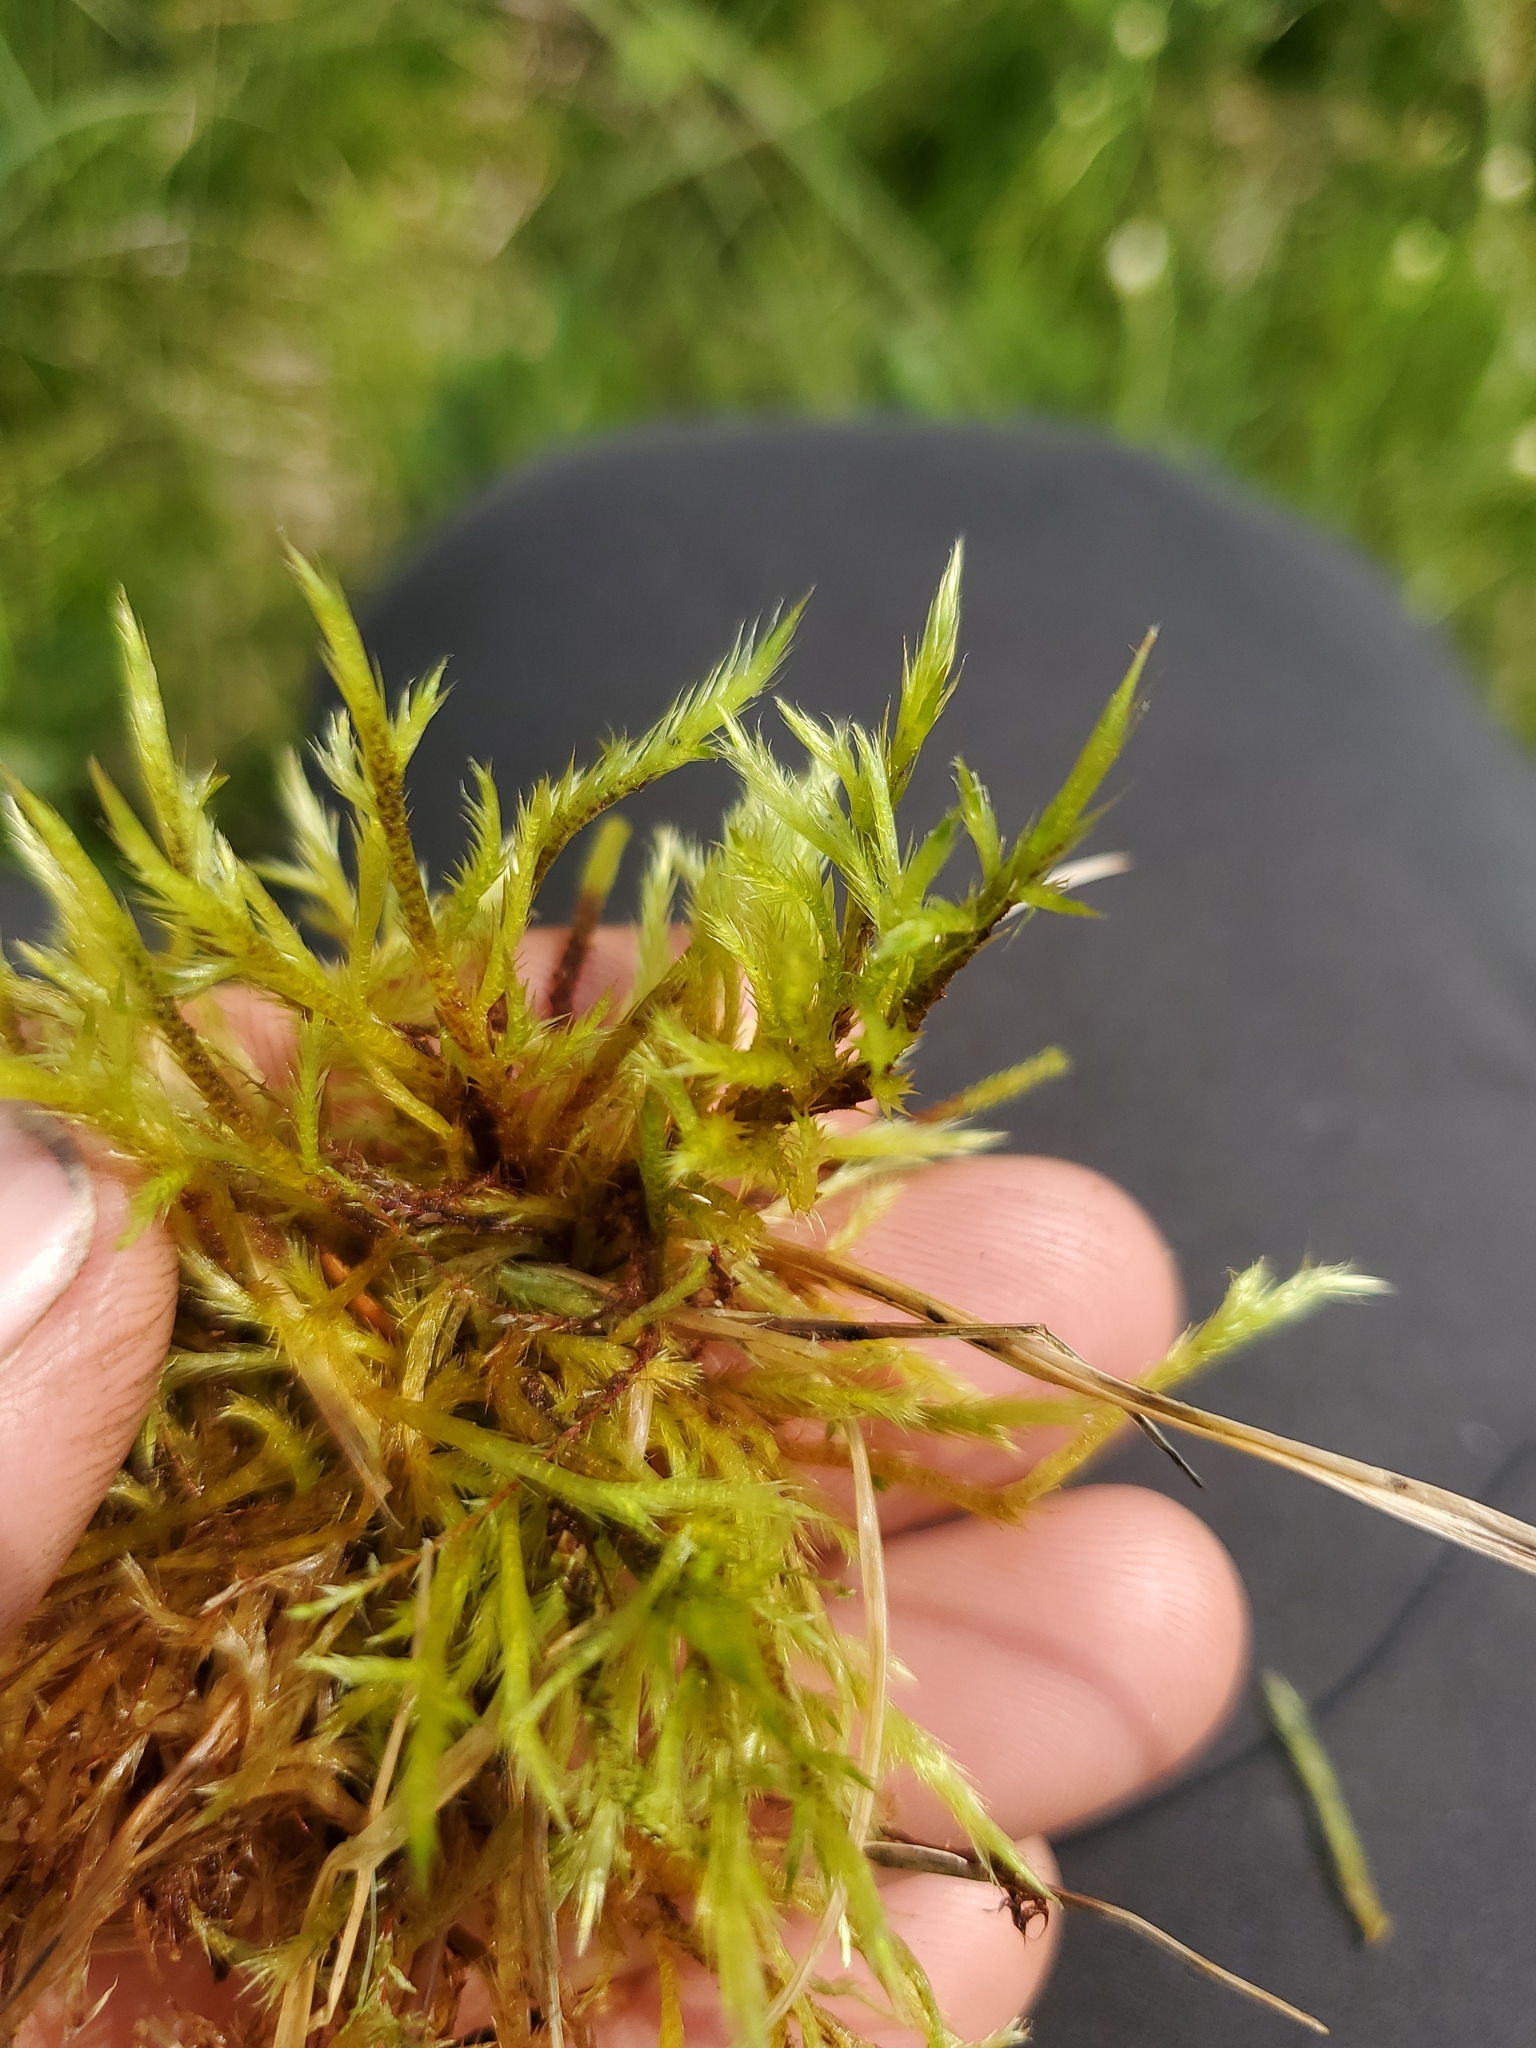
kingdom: Plantae
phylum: Bryophyta
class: Bryopsida
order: Hypnales
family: Amblystegiaceae
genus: Tomentypnum
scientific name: Tomentypnum nitens
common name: Golden fuzzy fen moss
